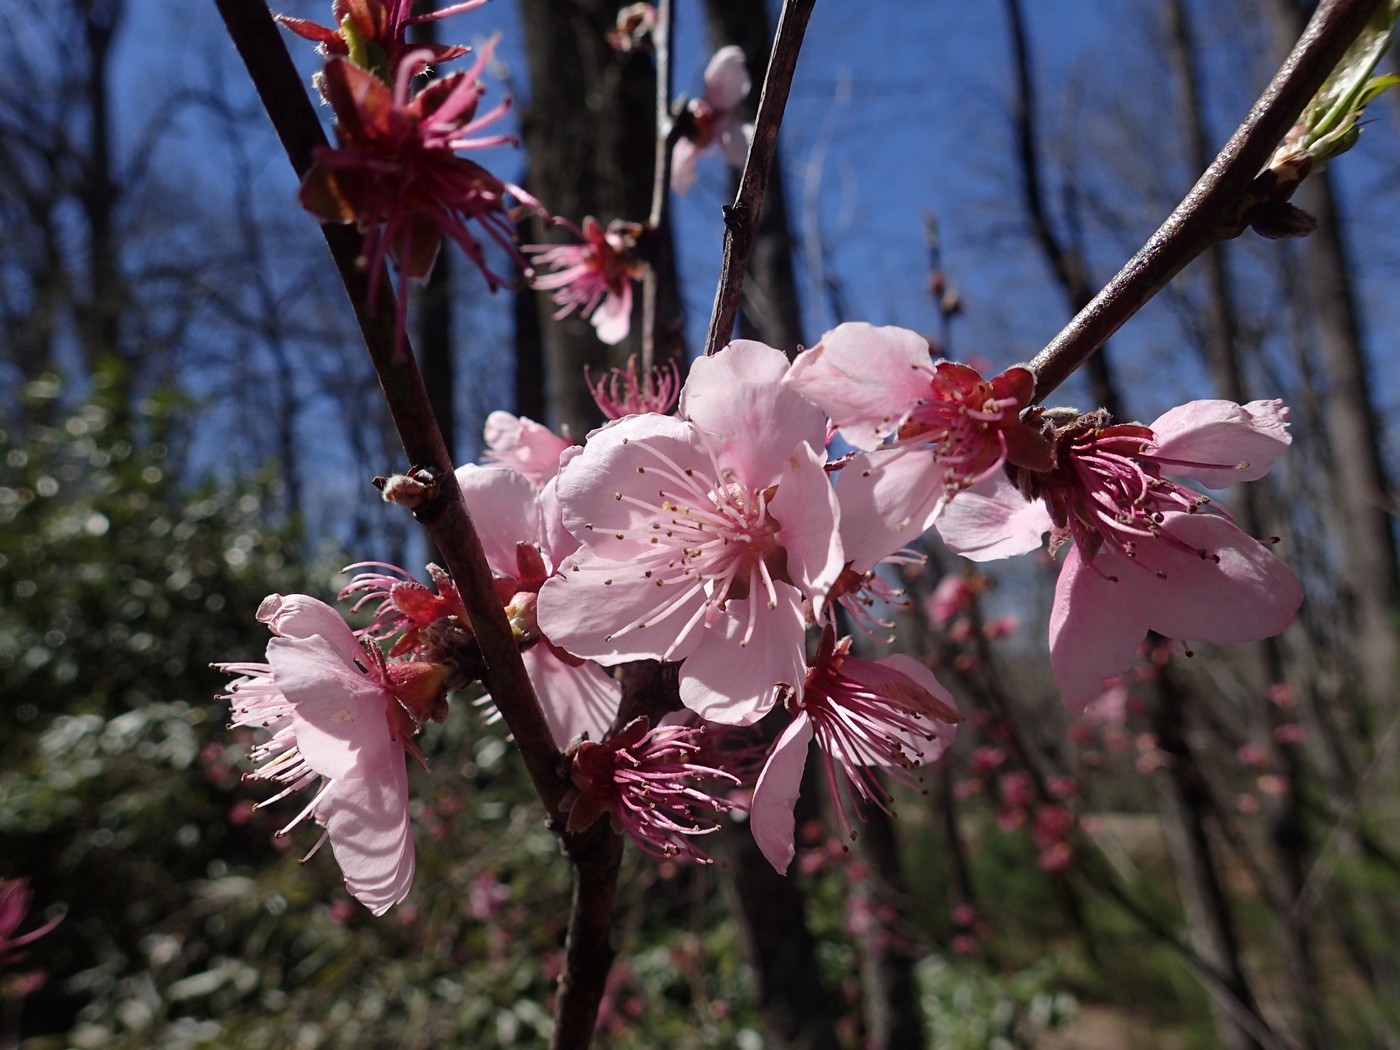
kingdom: Plantae
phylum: Tracheophyta
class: Magnoliopsida
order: Rosales
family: Rosaceae
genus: Prunus
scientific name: Prunus persica
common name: Peach
